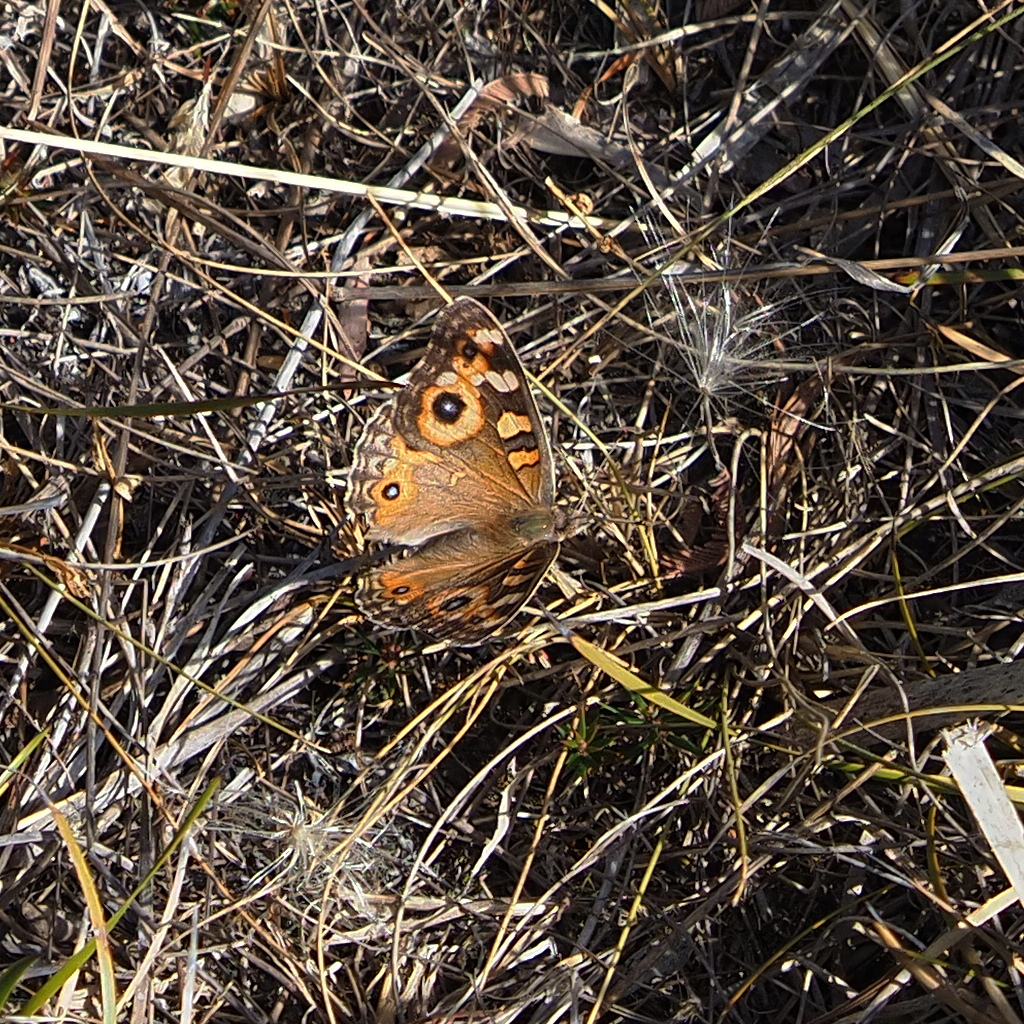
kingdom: Animalia
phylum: Arthropoda
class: Insecta
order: Lepidoptera
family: Nymphalidae
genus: Junonia
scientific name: Junonia villida
